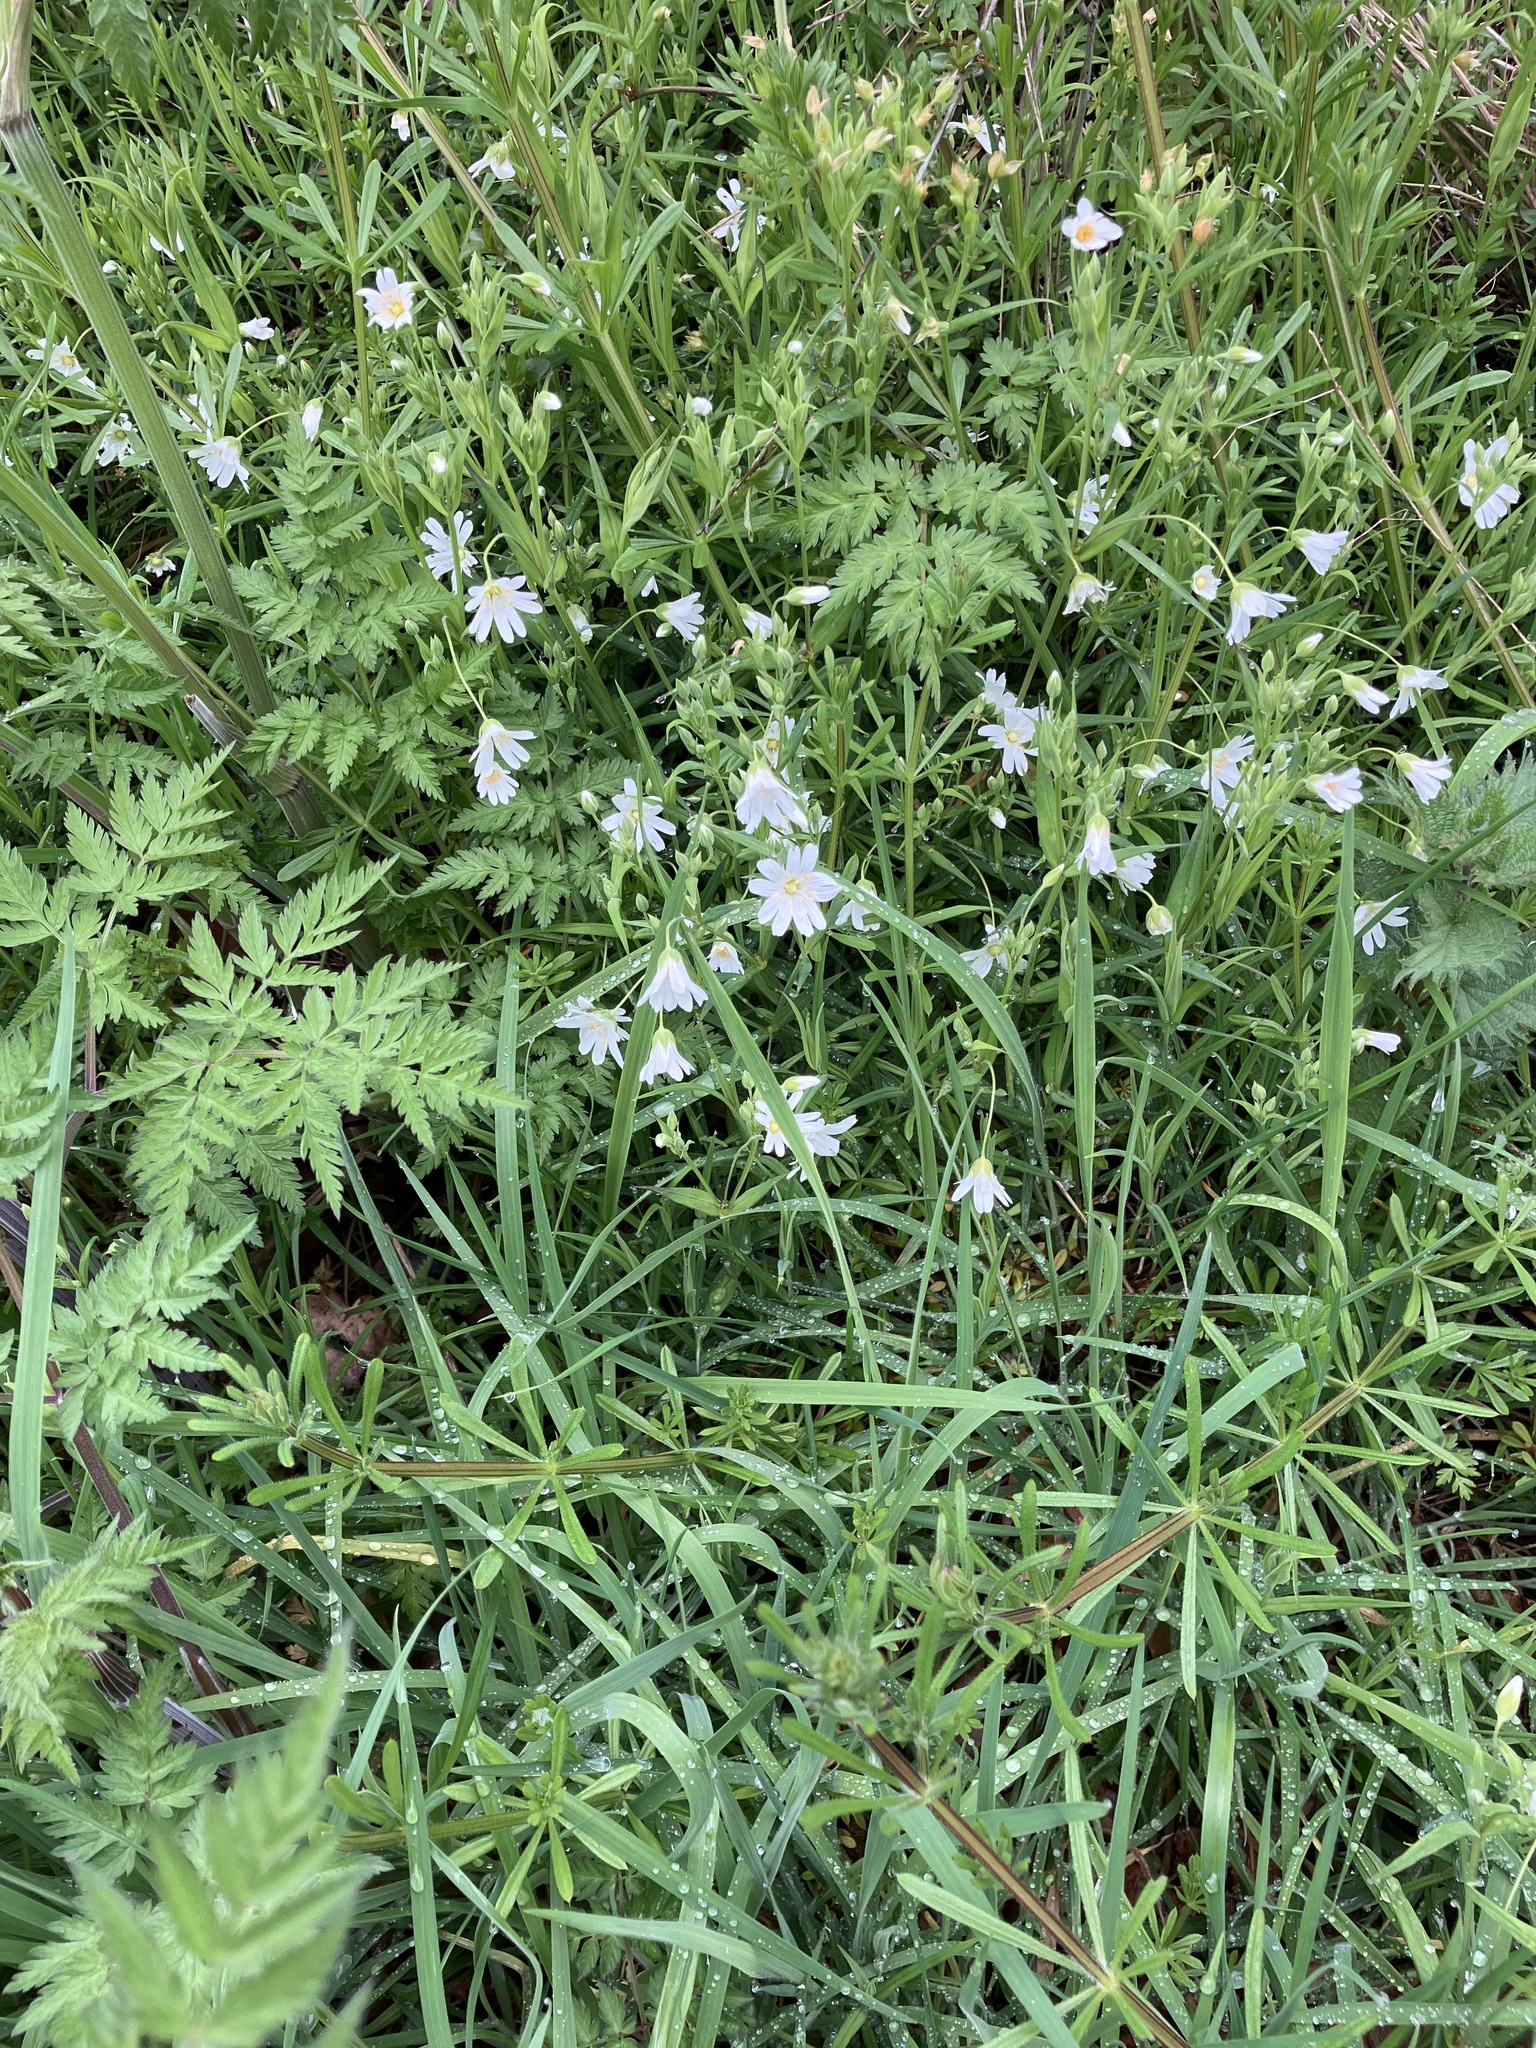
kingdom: Plantae
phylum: Tracheophyta
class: Magnoliopsida
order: Caryophyllales
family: Caryophyllaceae
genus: Rabelera
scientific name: Rabelera holostea
